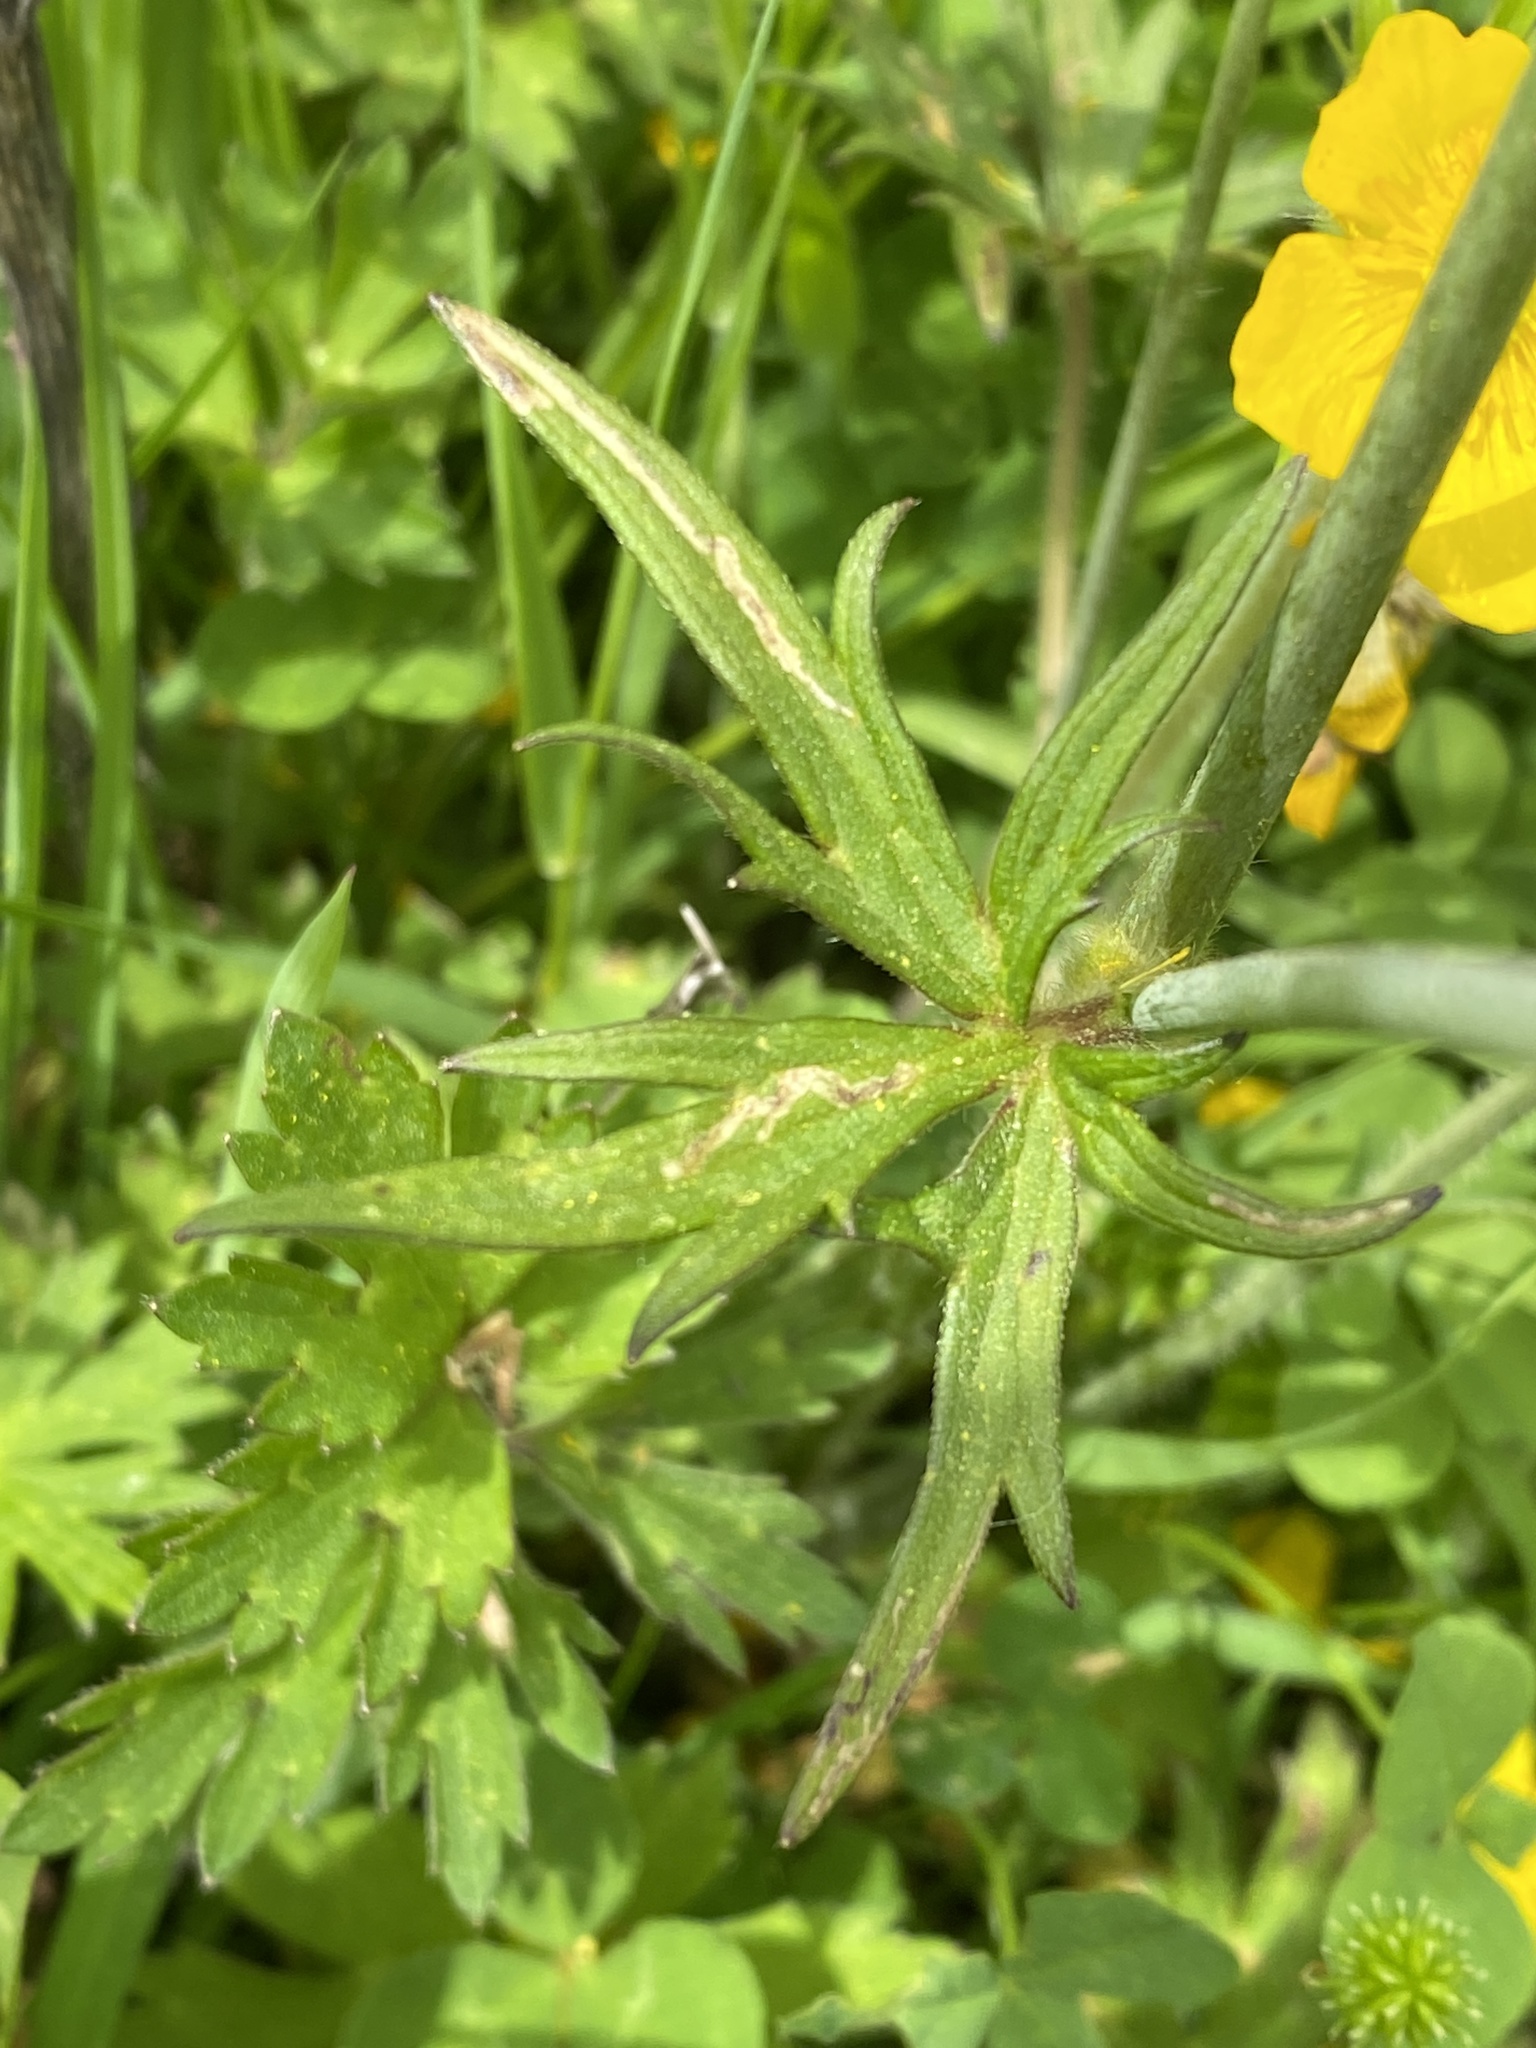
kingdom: Plantae
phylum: Tracheophyta
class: Magnoliopsida
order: Ranunculales
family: Ranunculaceae
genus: Ranunculus
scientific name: Ranunculus acris
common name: Meadow buttercup
